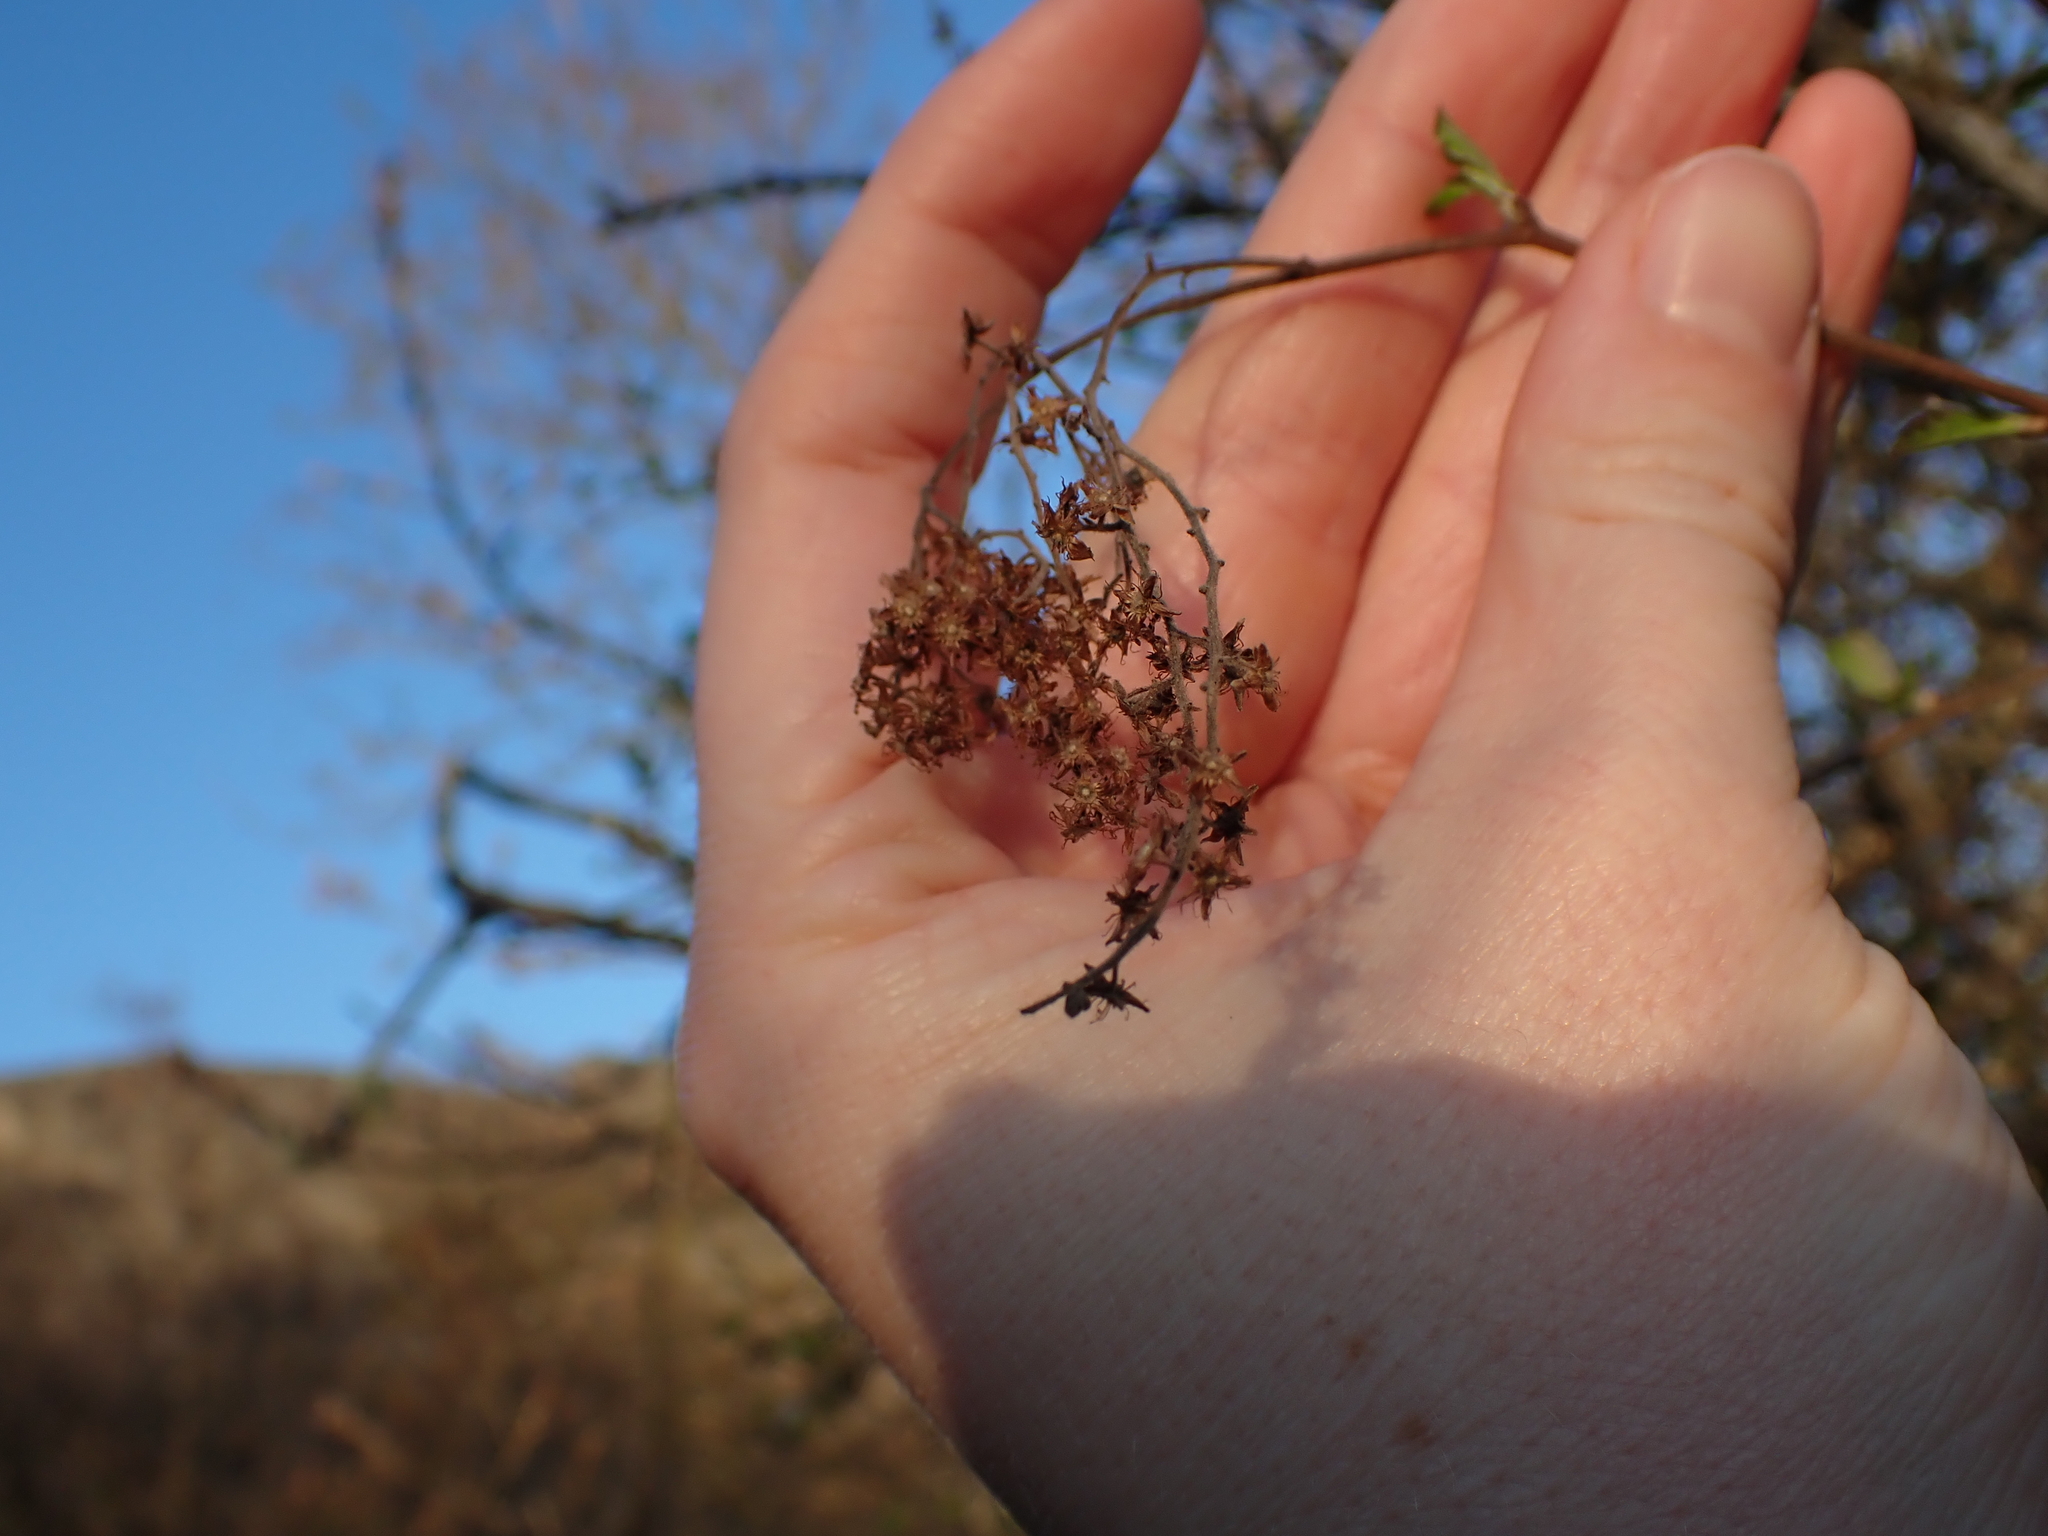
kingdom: Plantae
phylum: Tracheophyta
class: Magnoliopsida
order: Rosales
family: Rosaceae
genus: Holodiscus
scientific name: Holodiscus discolor
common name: Oceanspray
